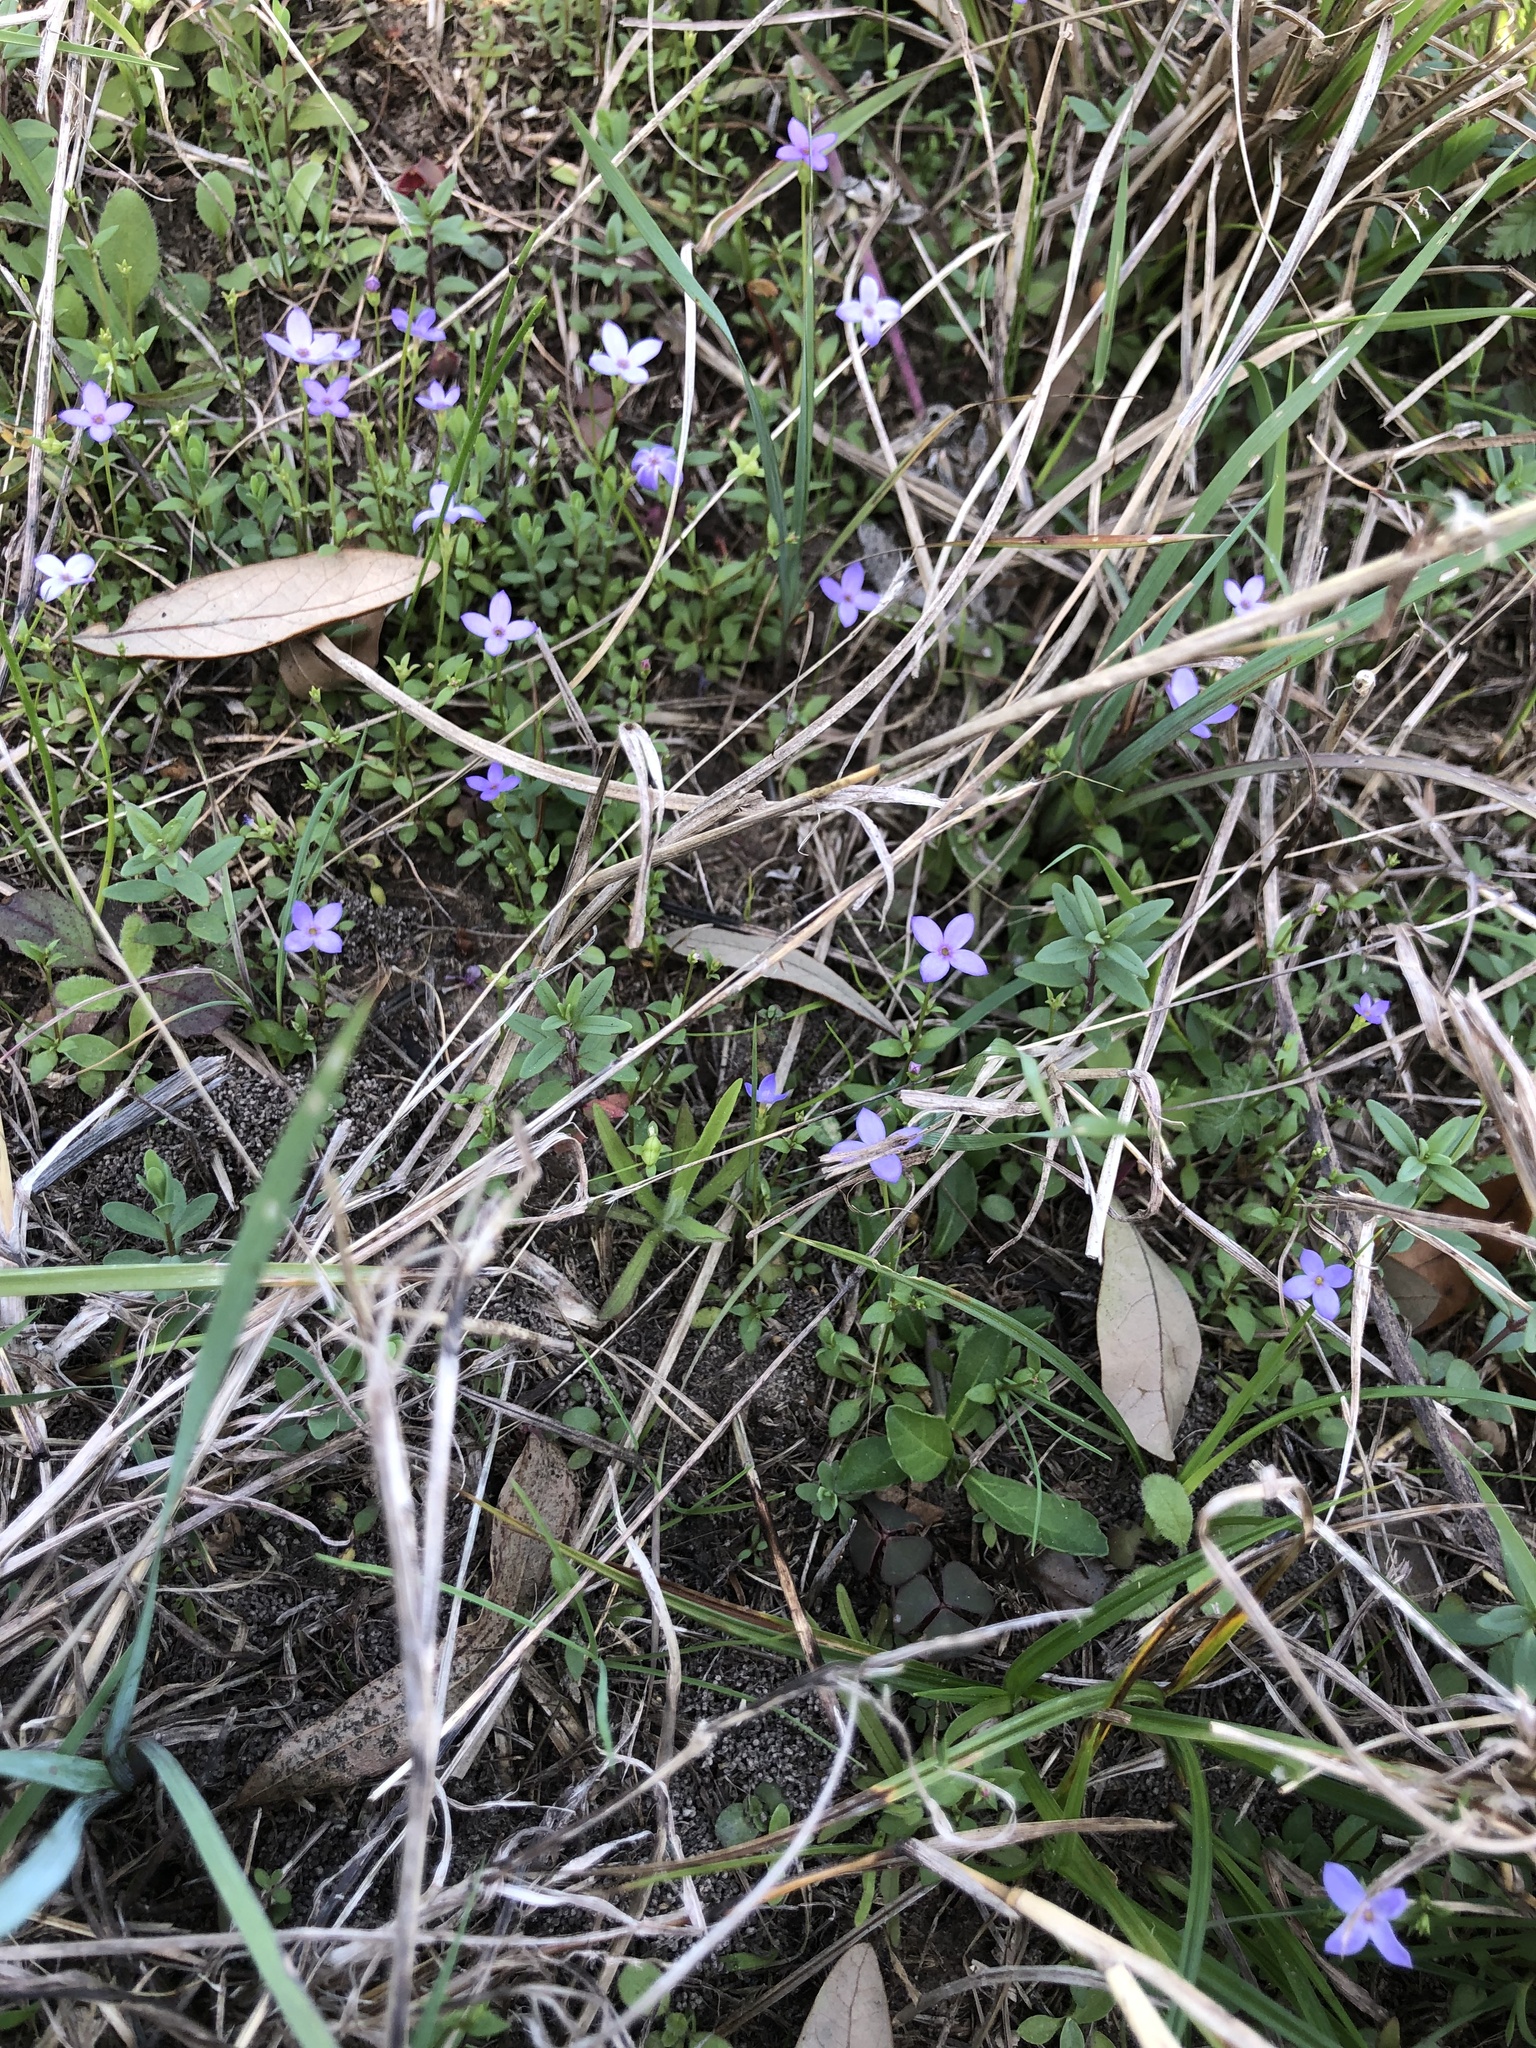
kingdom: Plantae
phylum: Tracheophyta
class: Magnoliopsida
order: Gentianales
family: Rubiaceae
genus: Houstonia
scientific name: Houstonia pusilla
